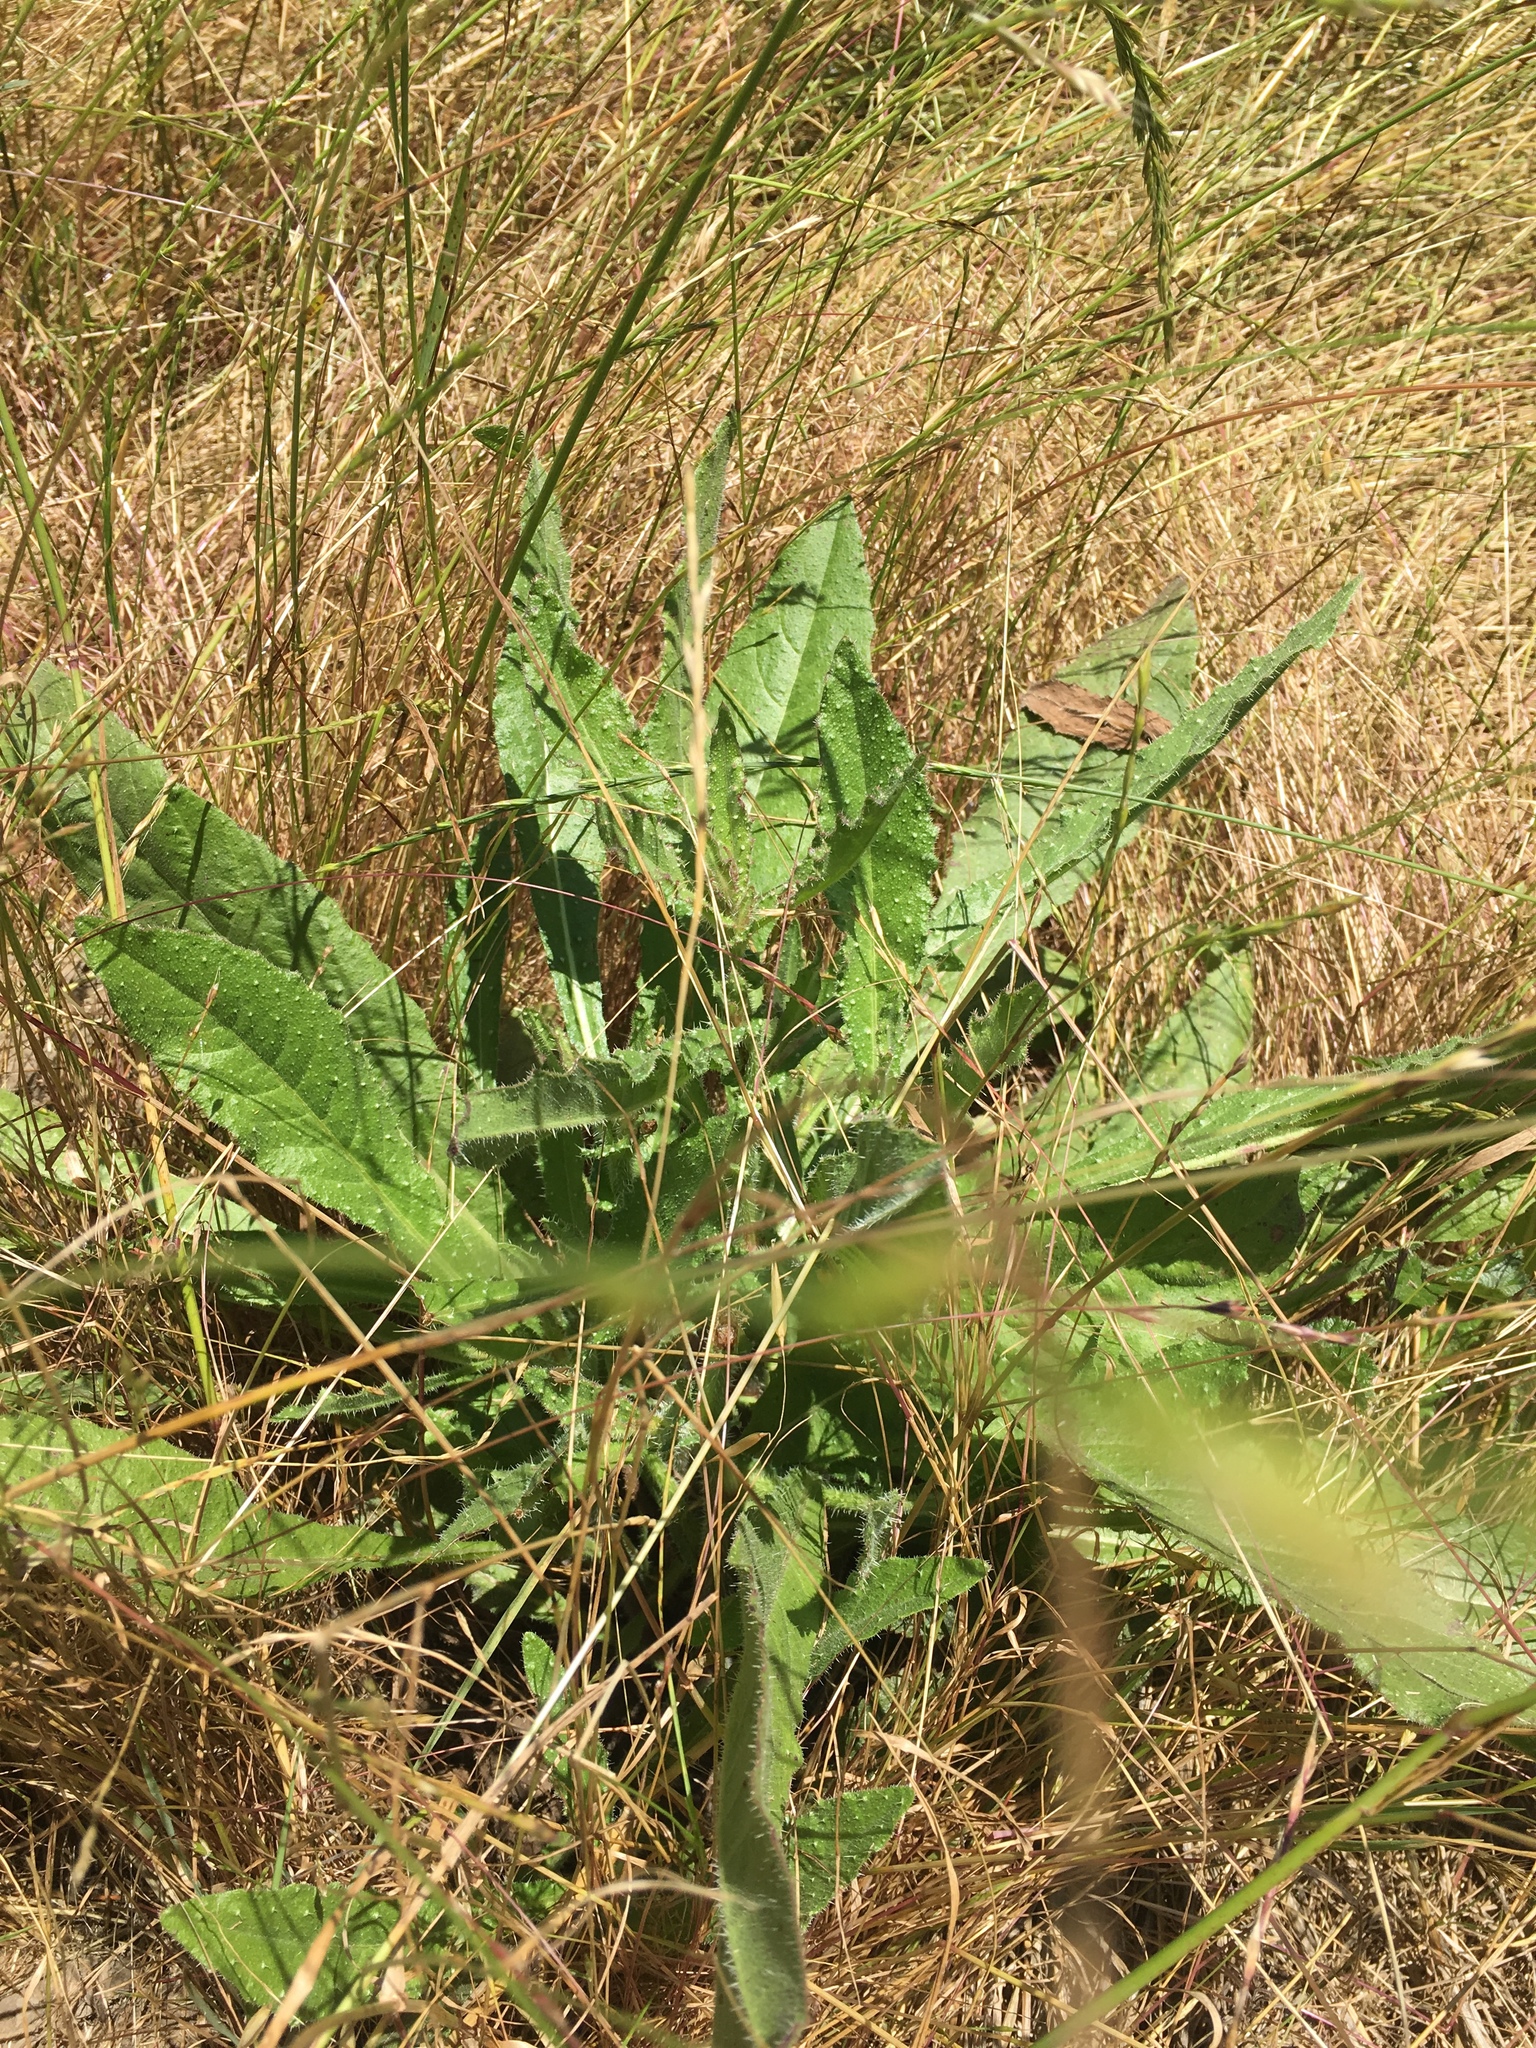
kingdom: Plantae
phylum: Tracheophyta
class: Magnoliopsida
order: Asterales
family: Asteraceae
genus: Helminthotheca
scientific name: Helminthotheca echioides
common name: Ox-tongue
